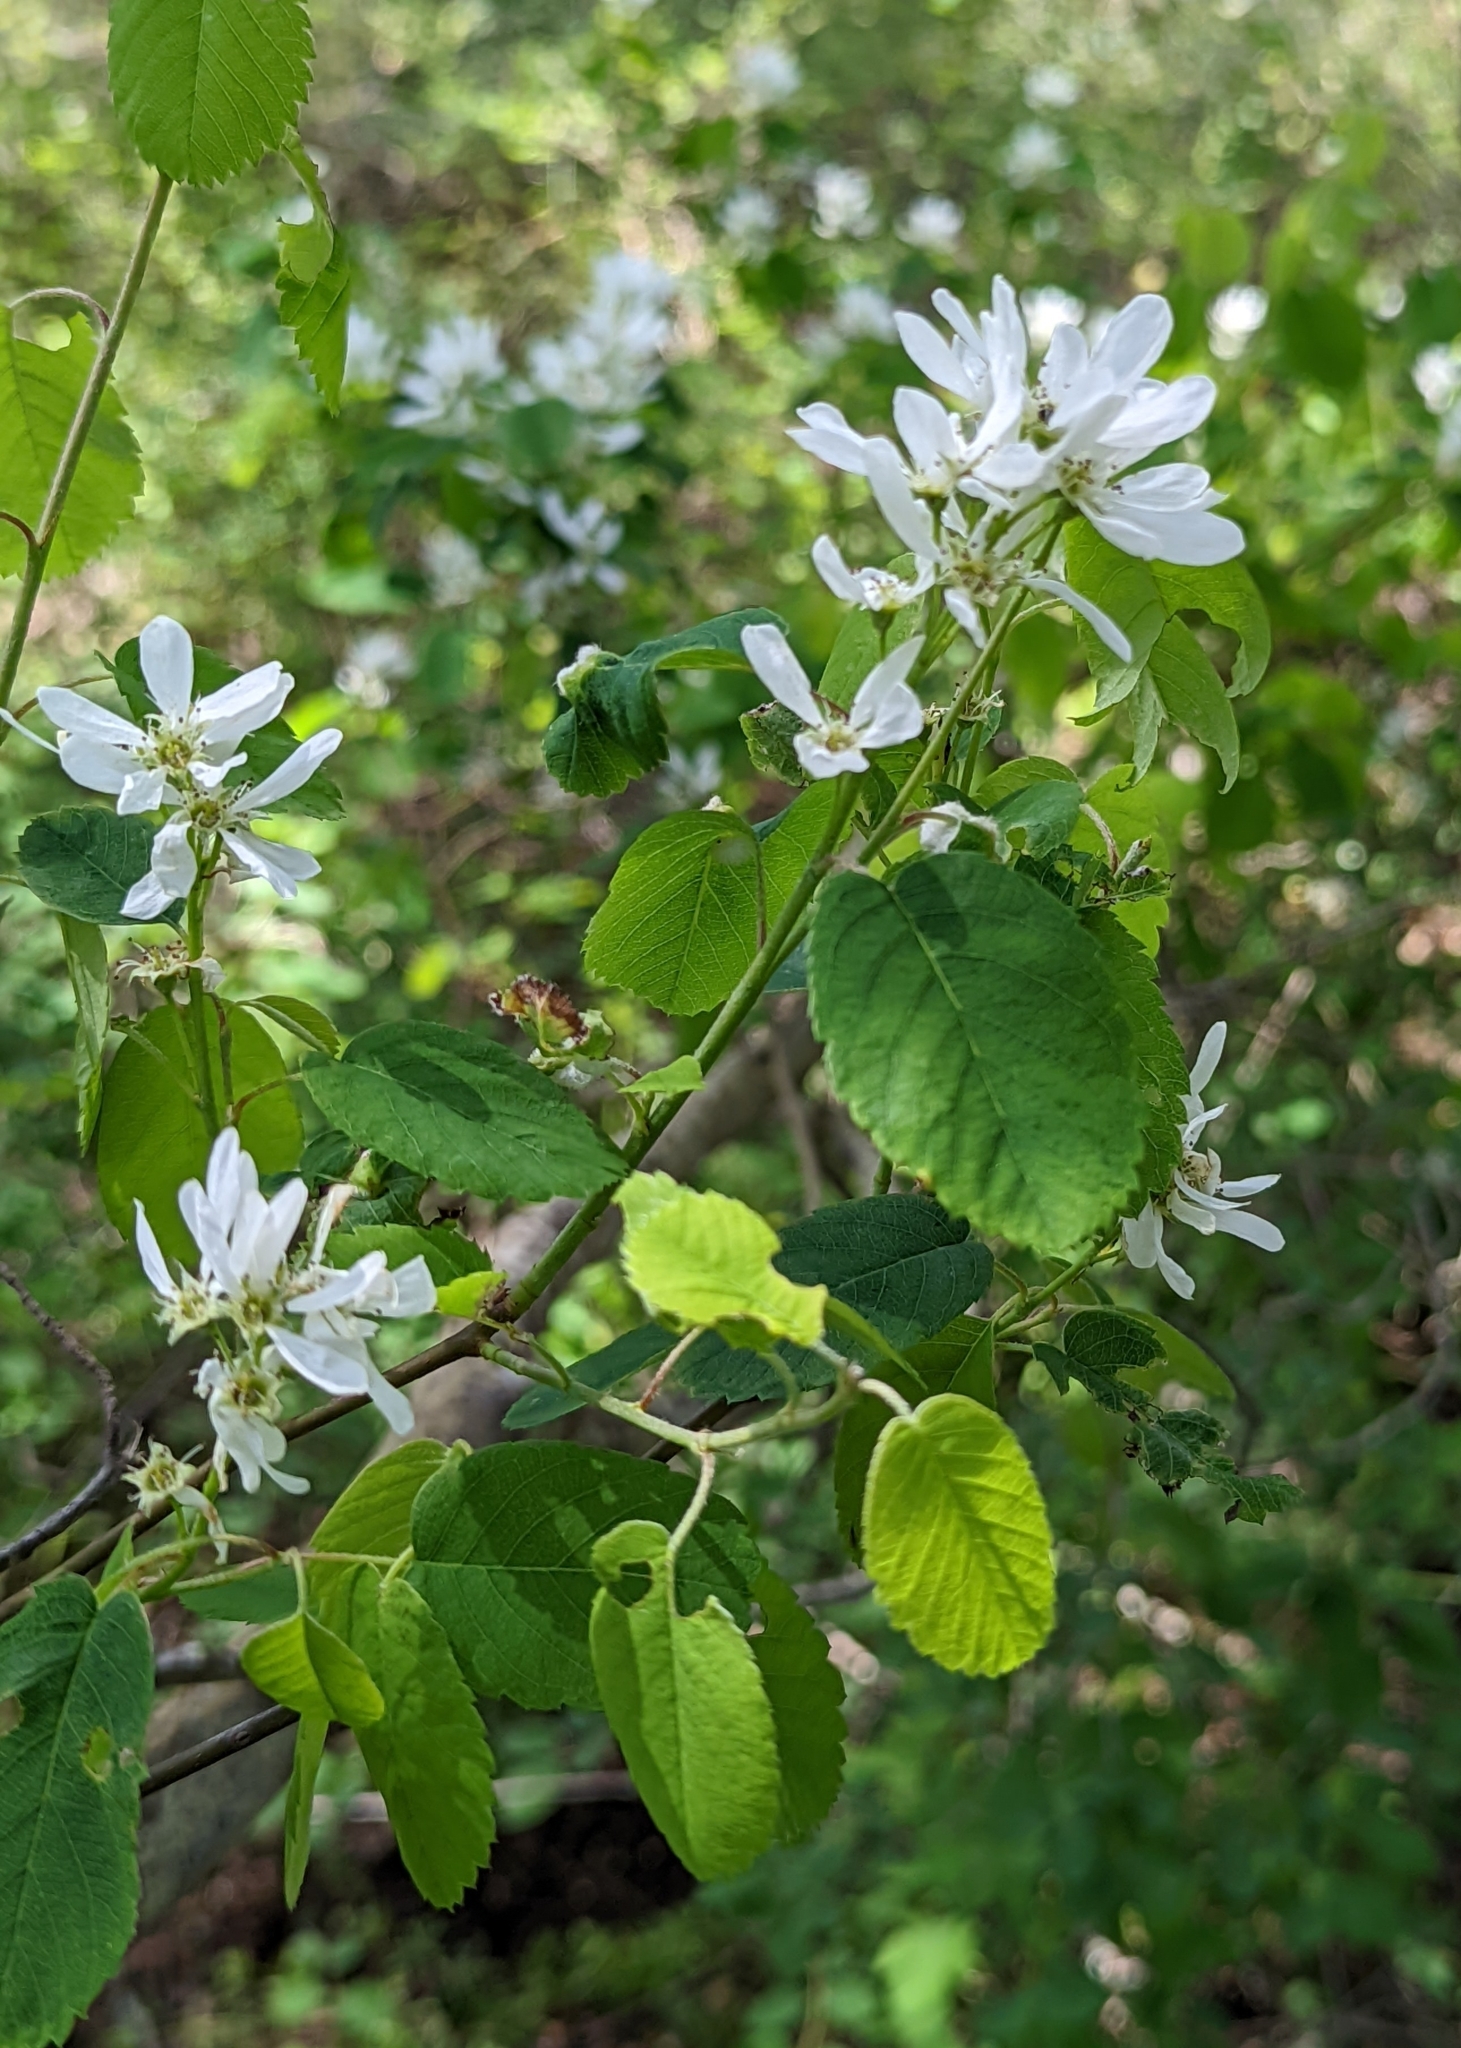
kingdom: Plantae
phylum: Tracheophyta
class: Magnoliopsida
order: Rosales
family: Rosaceae
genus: Amelanchier
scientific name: Amelanchier alnifolia
